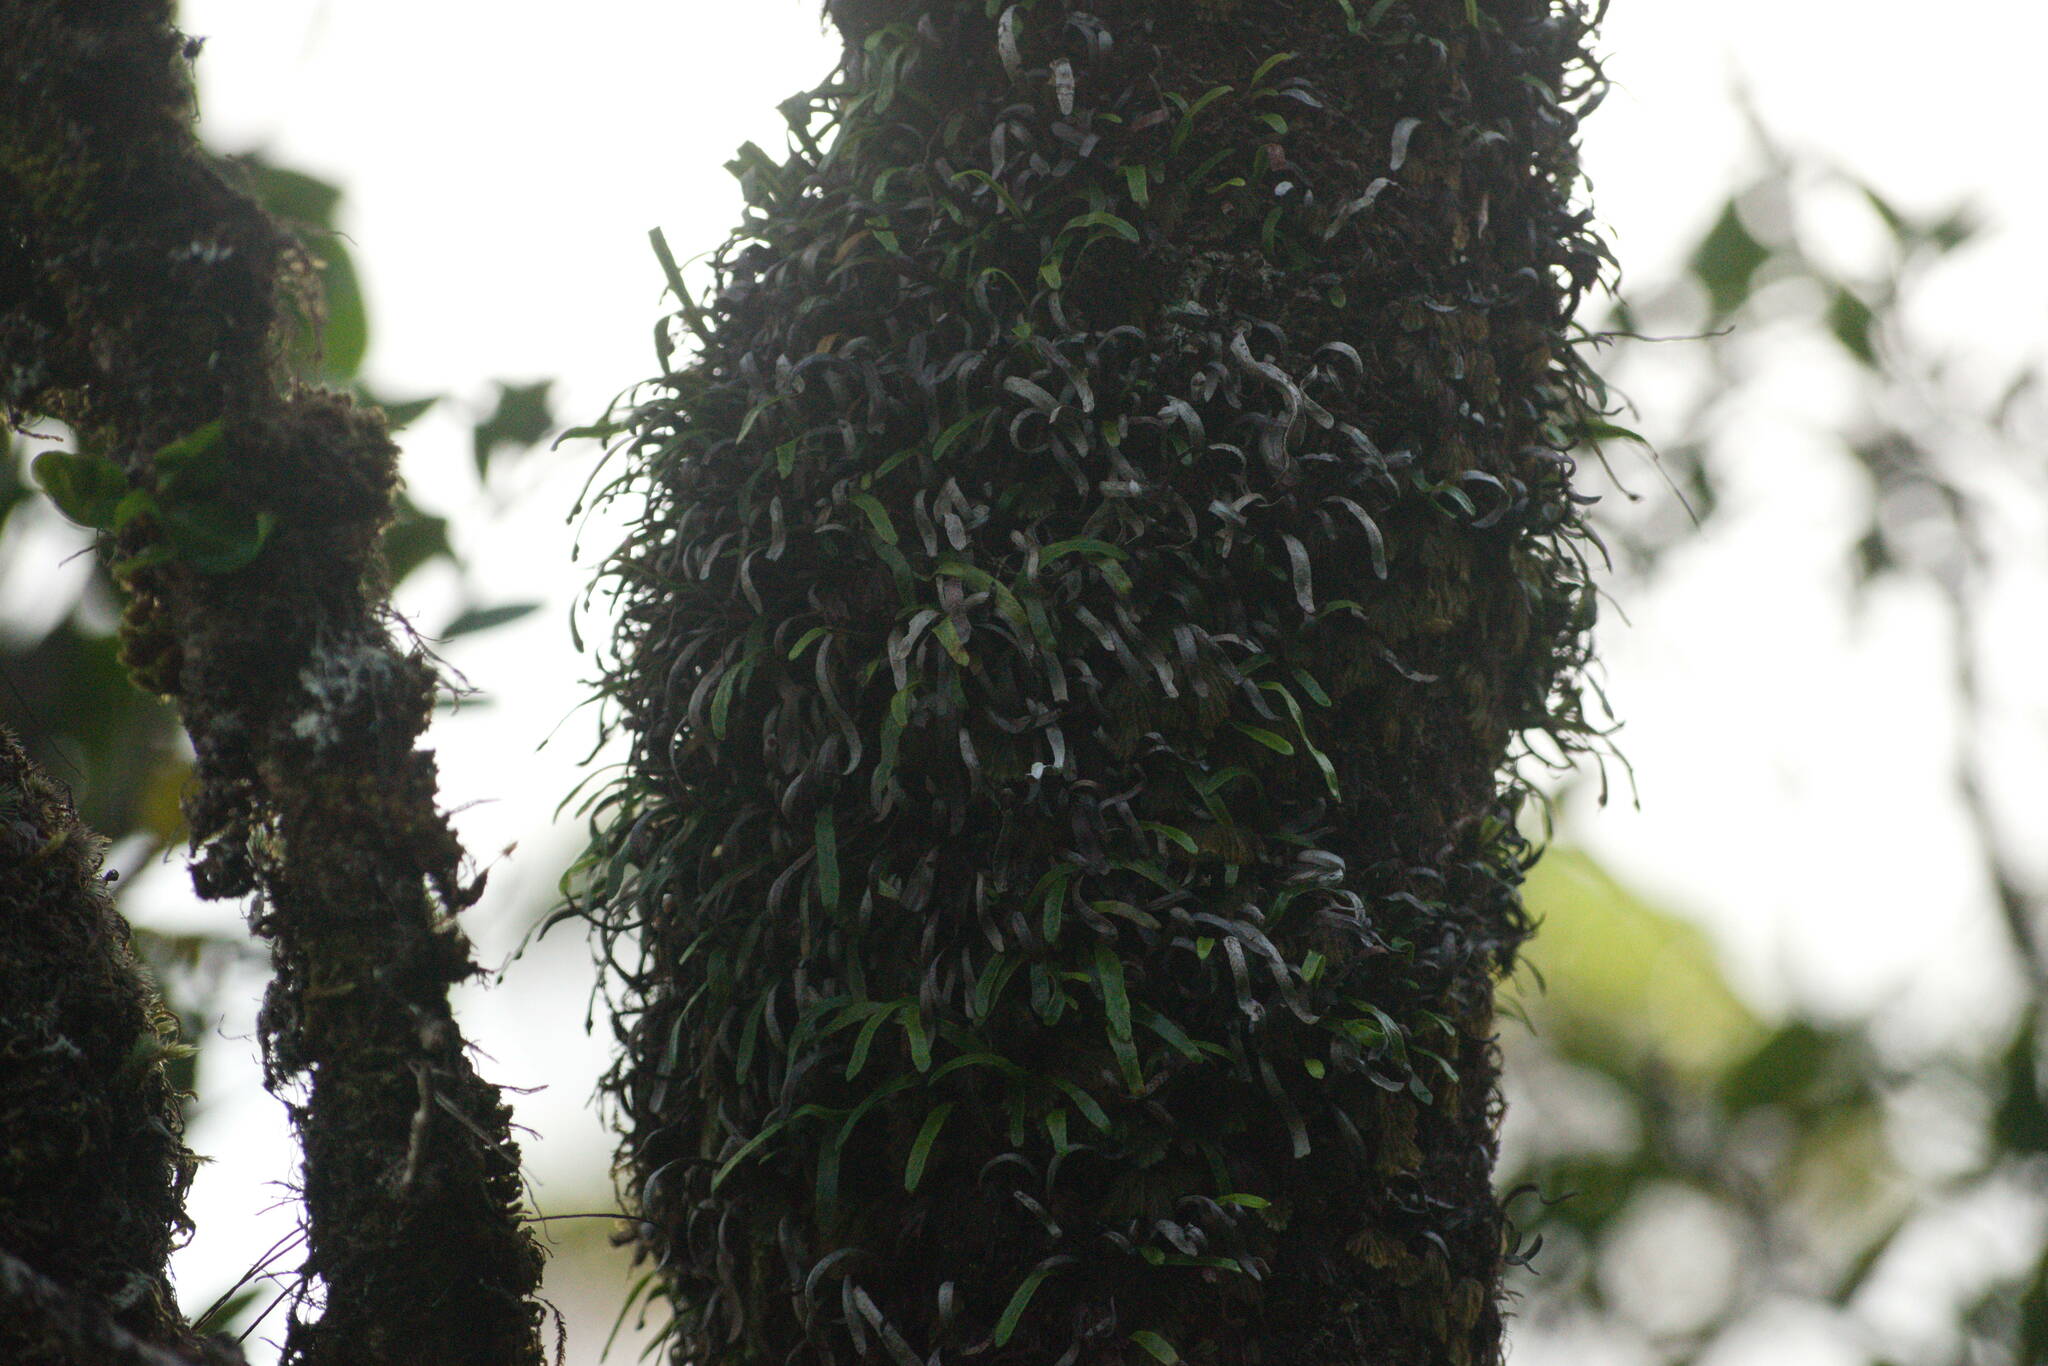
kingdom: Plantae
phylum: Tracheophyta
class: Polypodiopsida
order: Polypodiales
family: Polypodiaceae
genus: Adenophorus
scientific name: Adenophorus tenellus
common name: Kolokolo
